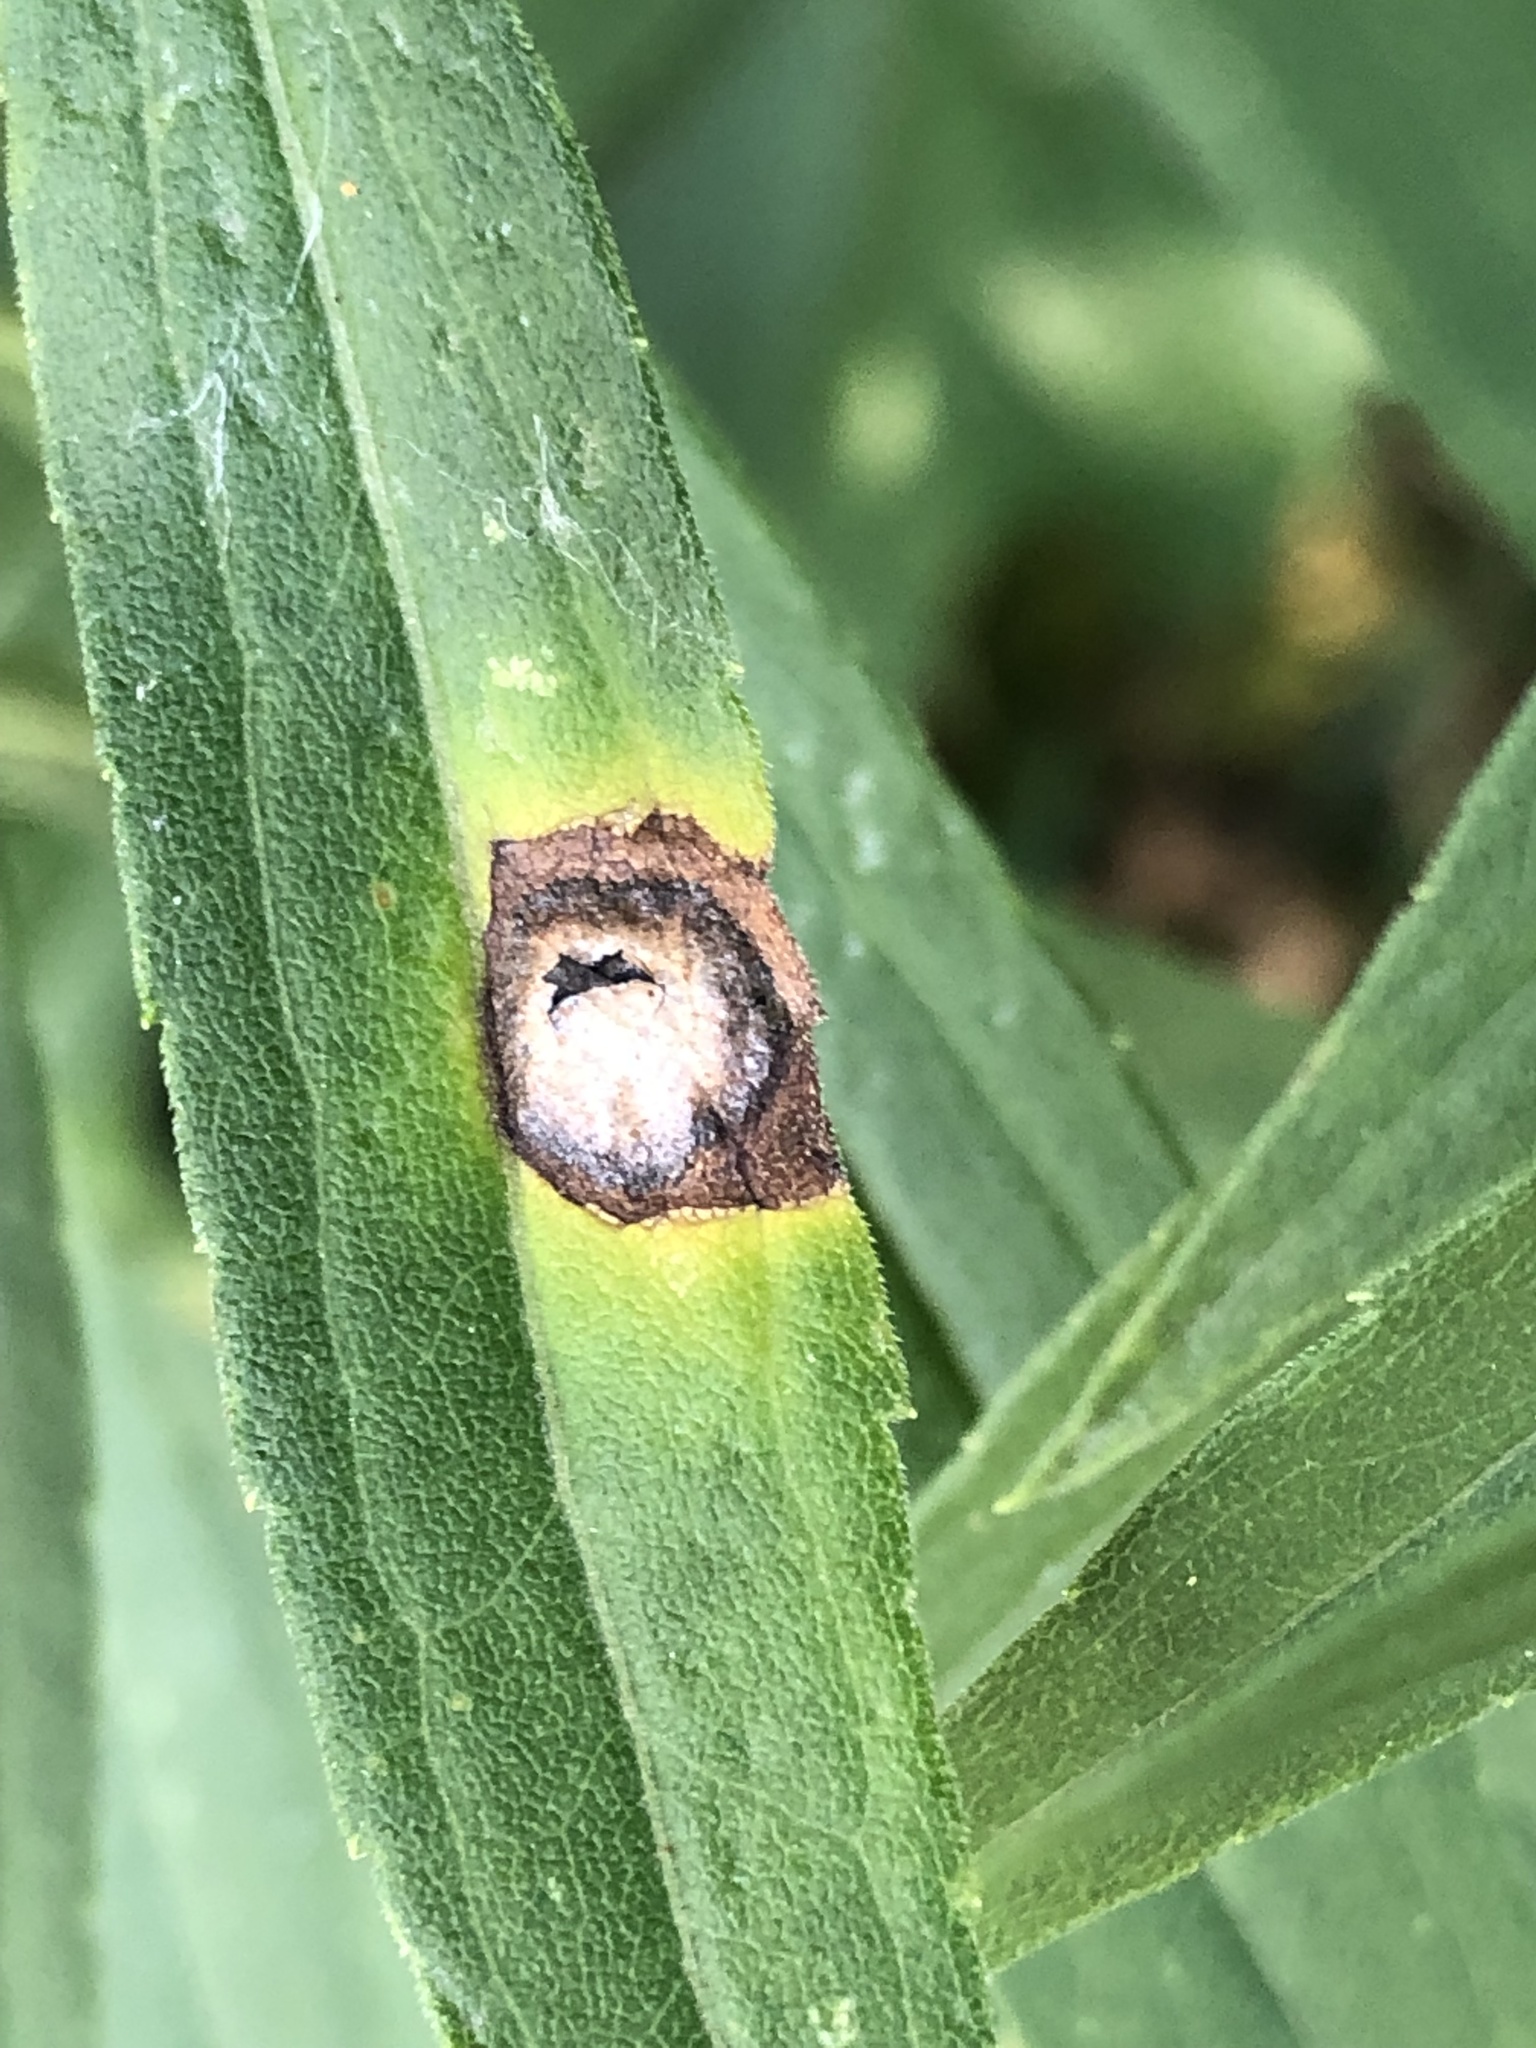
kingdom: Animalia
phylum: Arthropoda
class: Insecta
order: Diptera
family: Cecidomyiidae
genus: Asteromyia
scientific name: Asteromyia carbonifera
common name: Carbonifera goldenrod gall midge
